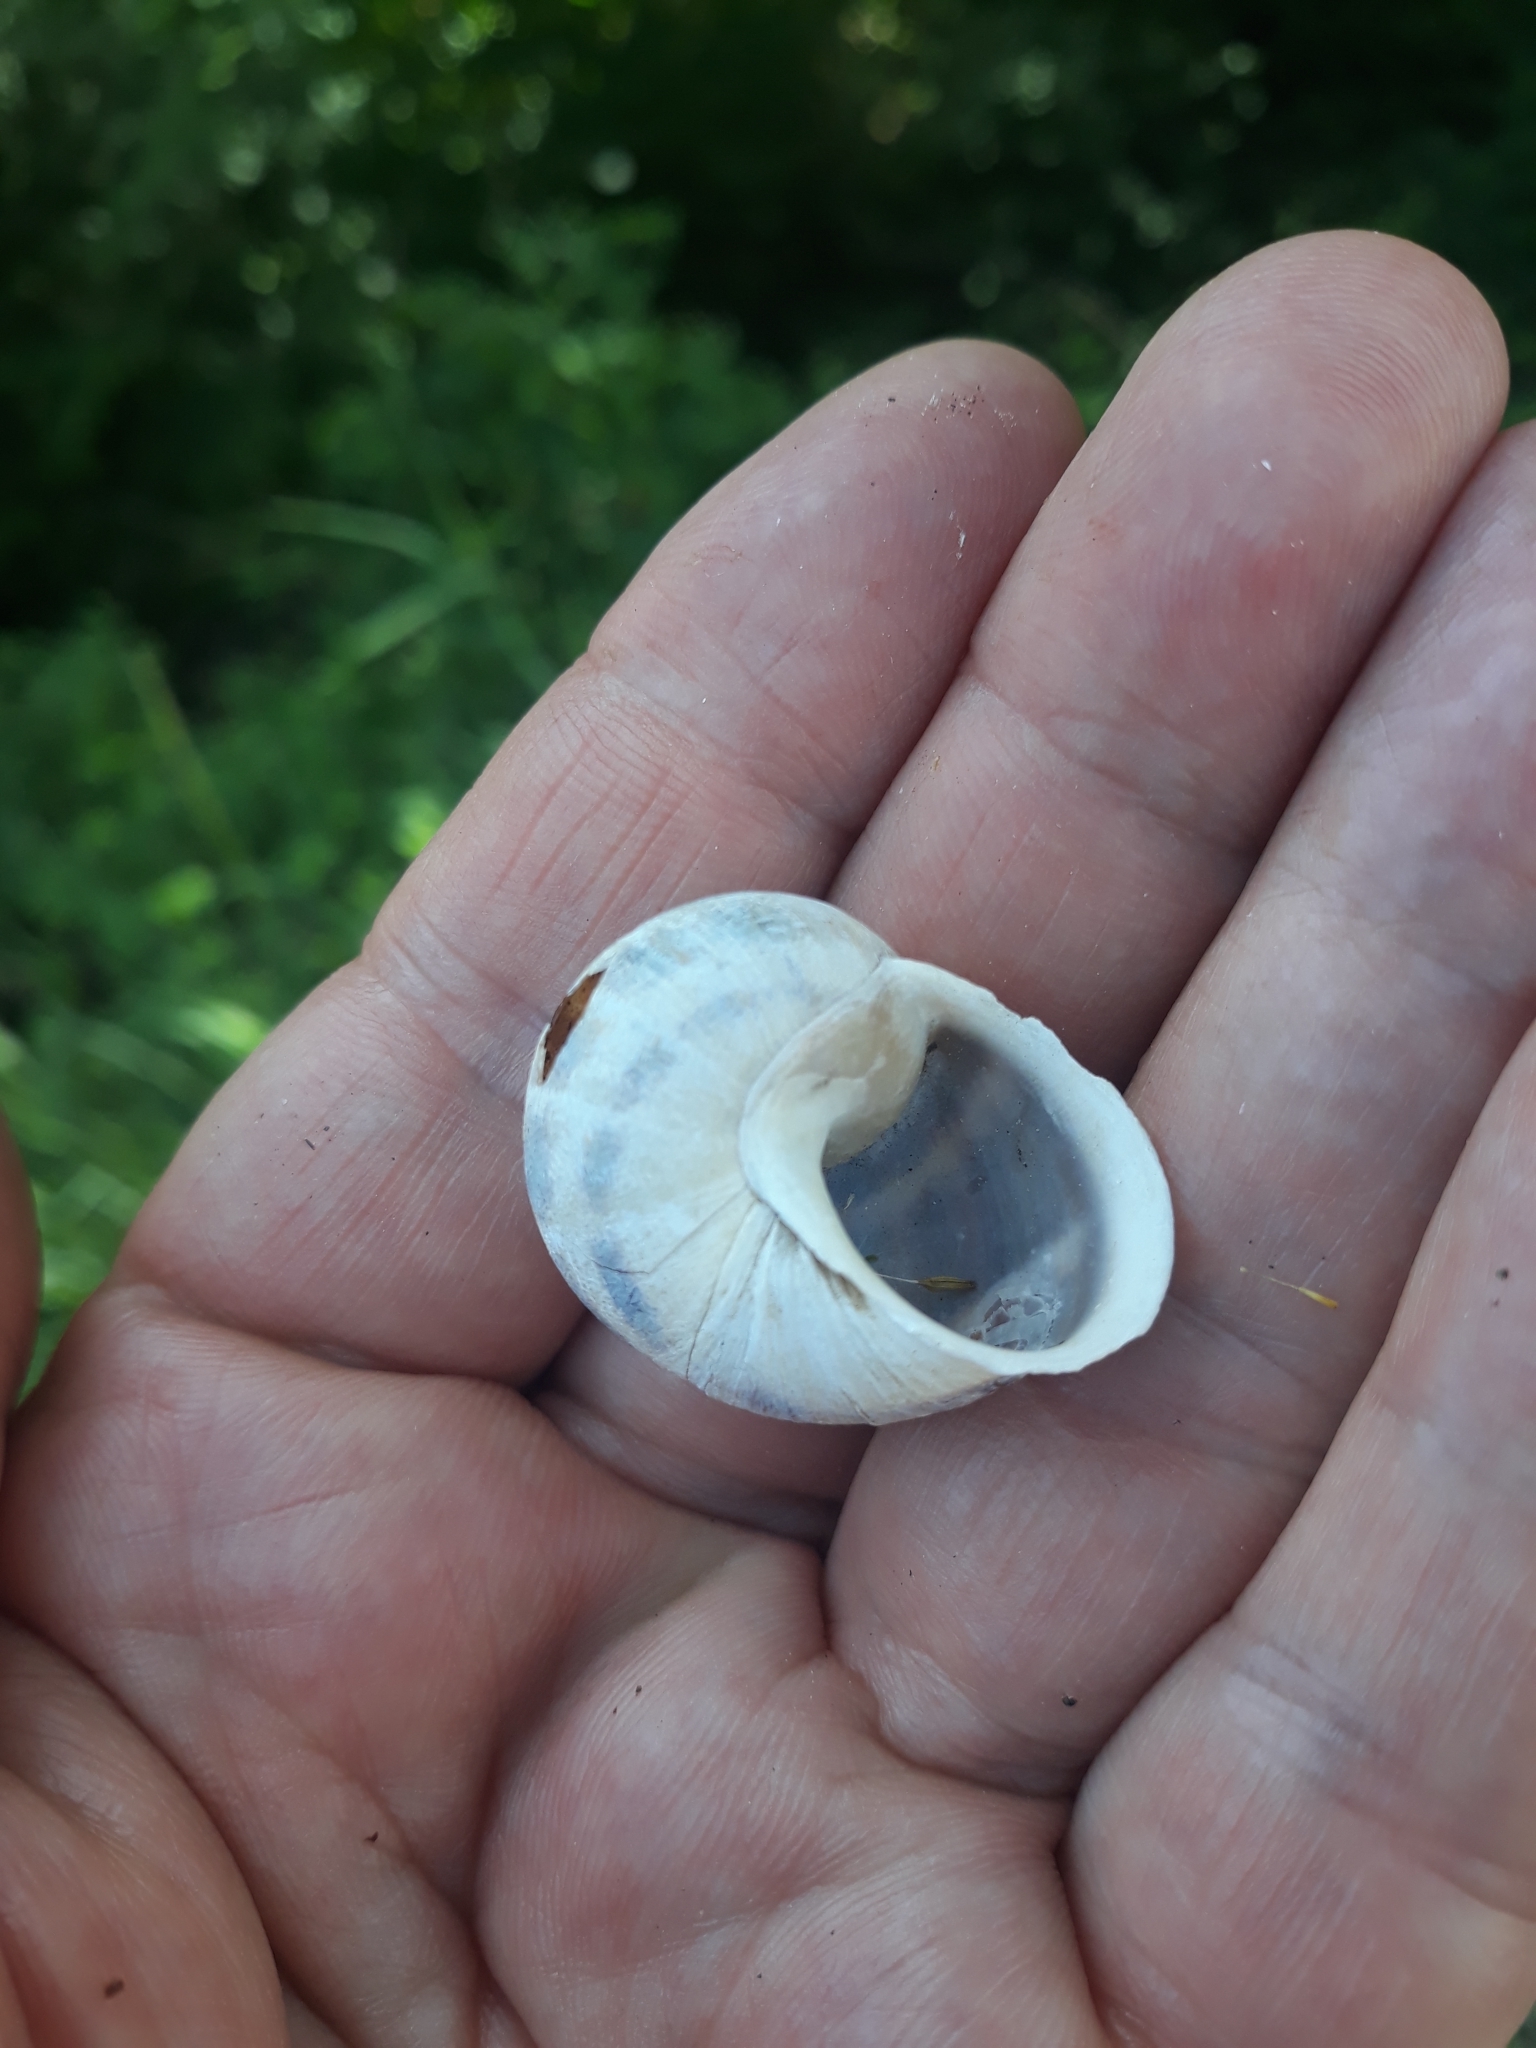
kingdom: Animalia
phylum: Mollusca
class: Gastropoda
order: Stylommatophora
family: Helicidae
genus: Cornu
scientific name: Cornu aspersum
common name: Brown garden snail
